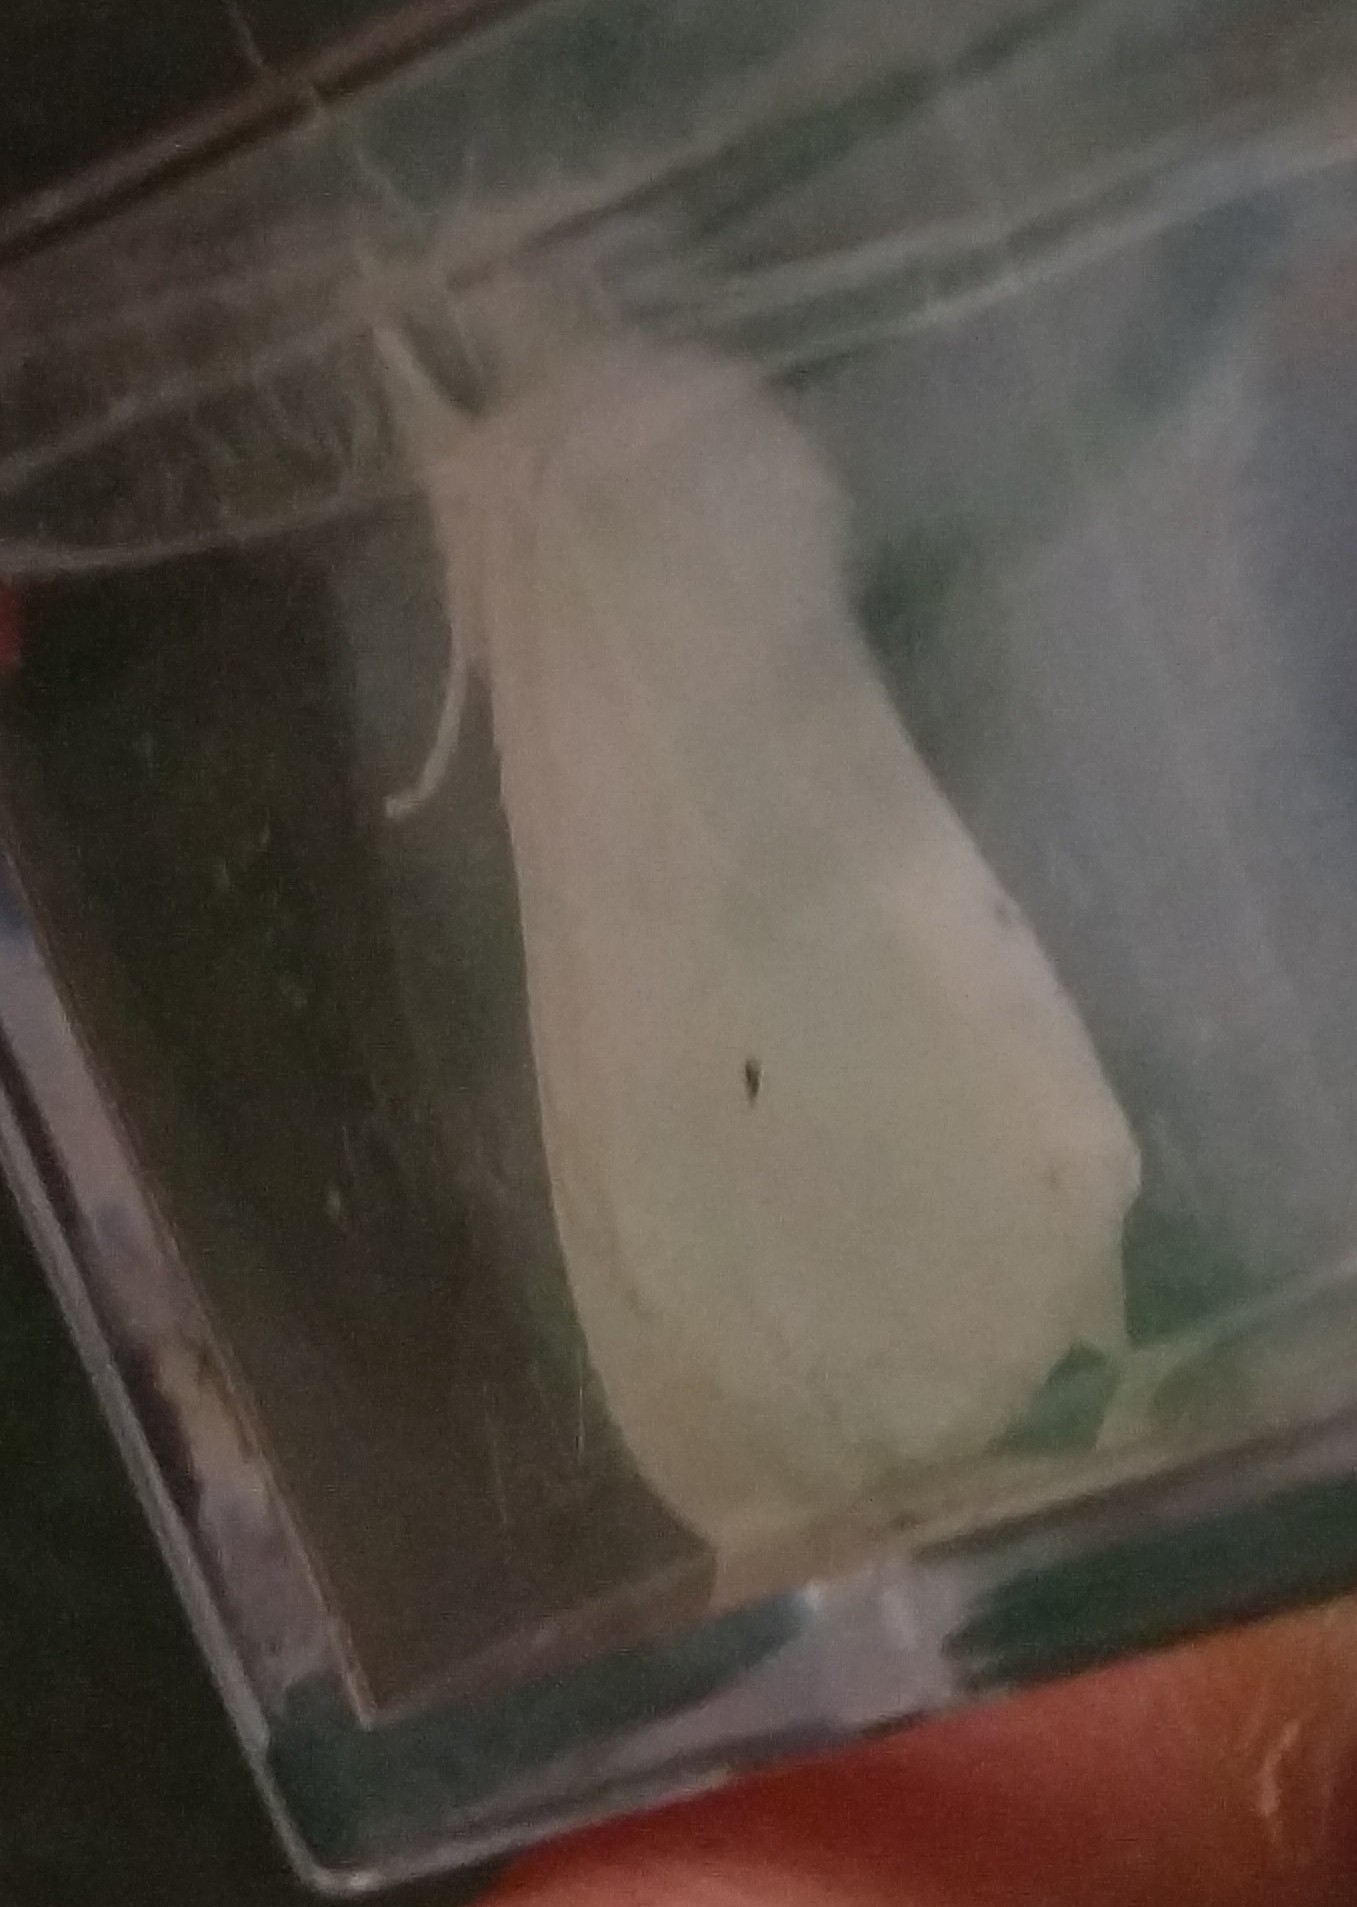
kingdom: Animalia
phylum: Arthropoda
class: Insecta
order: Lepidoptera
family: Erebidae
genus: Spilosoma
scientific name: Spilosoma virginica
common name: Virginia tiger moth
